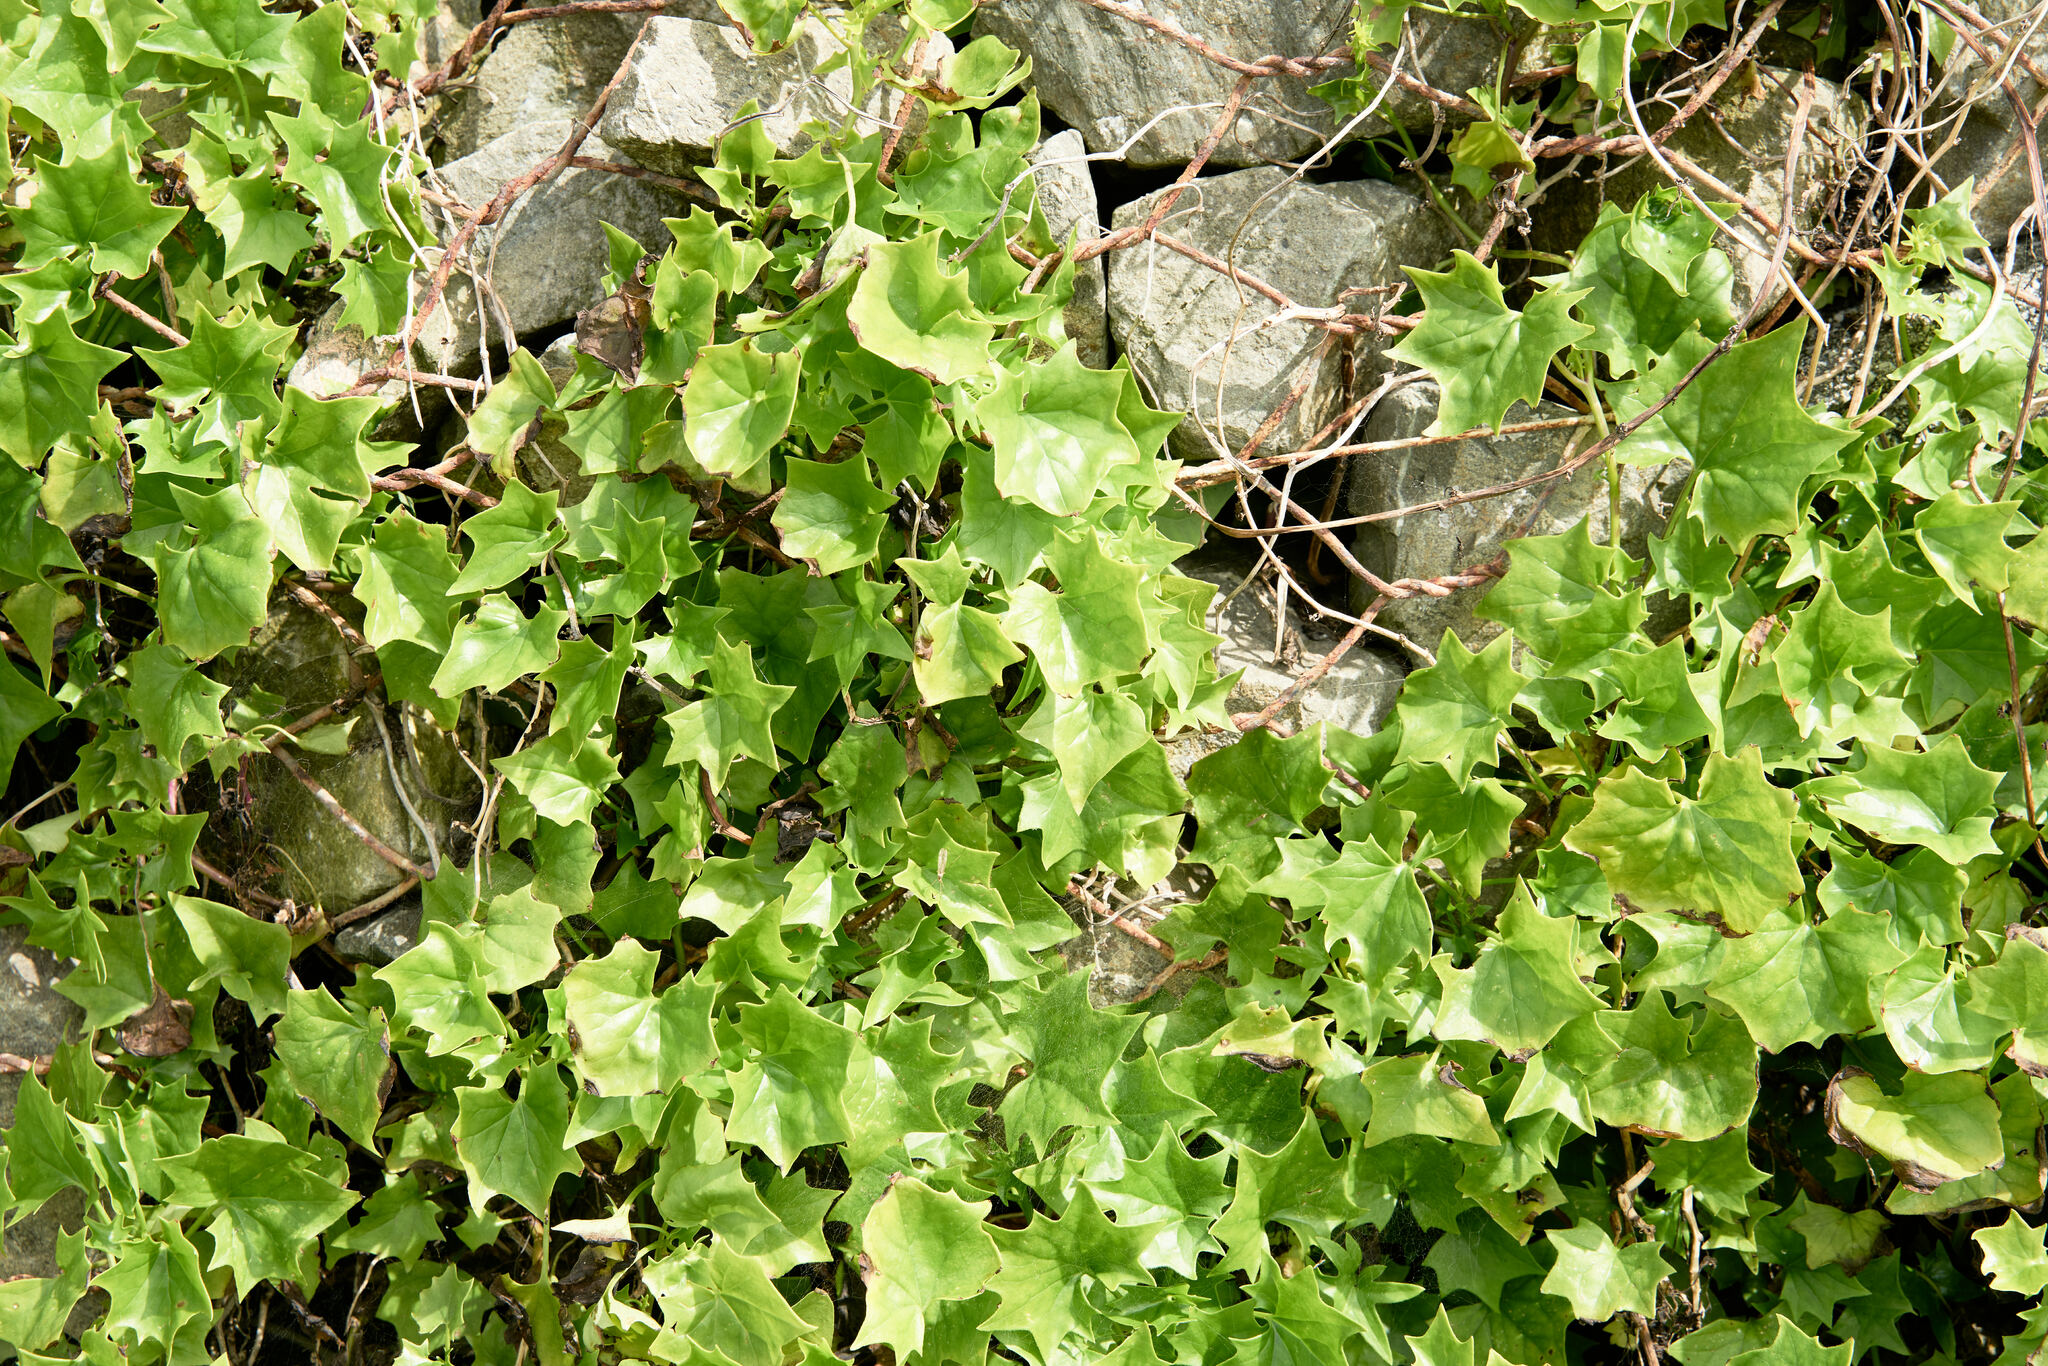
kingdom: Plantae
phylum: Tracheophyta
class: Magnoliopsida
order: Asterales
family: Asteraceae
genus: Delairea
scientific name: Delairea odorata
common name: Cape-ivy
